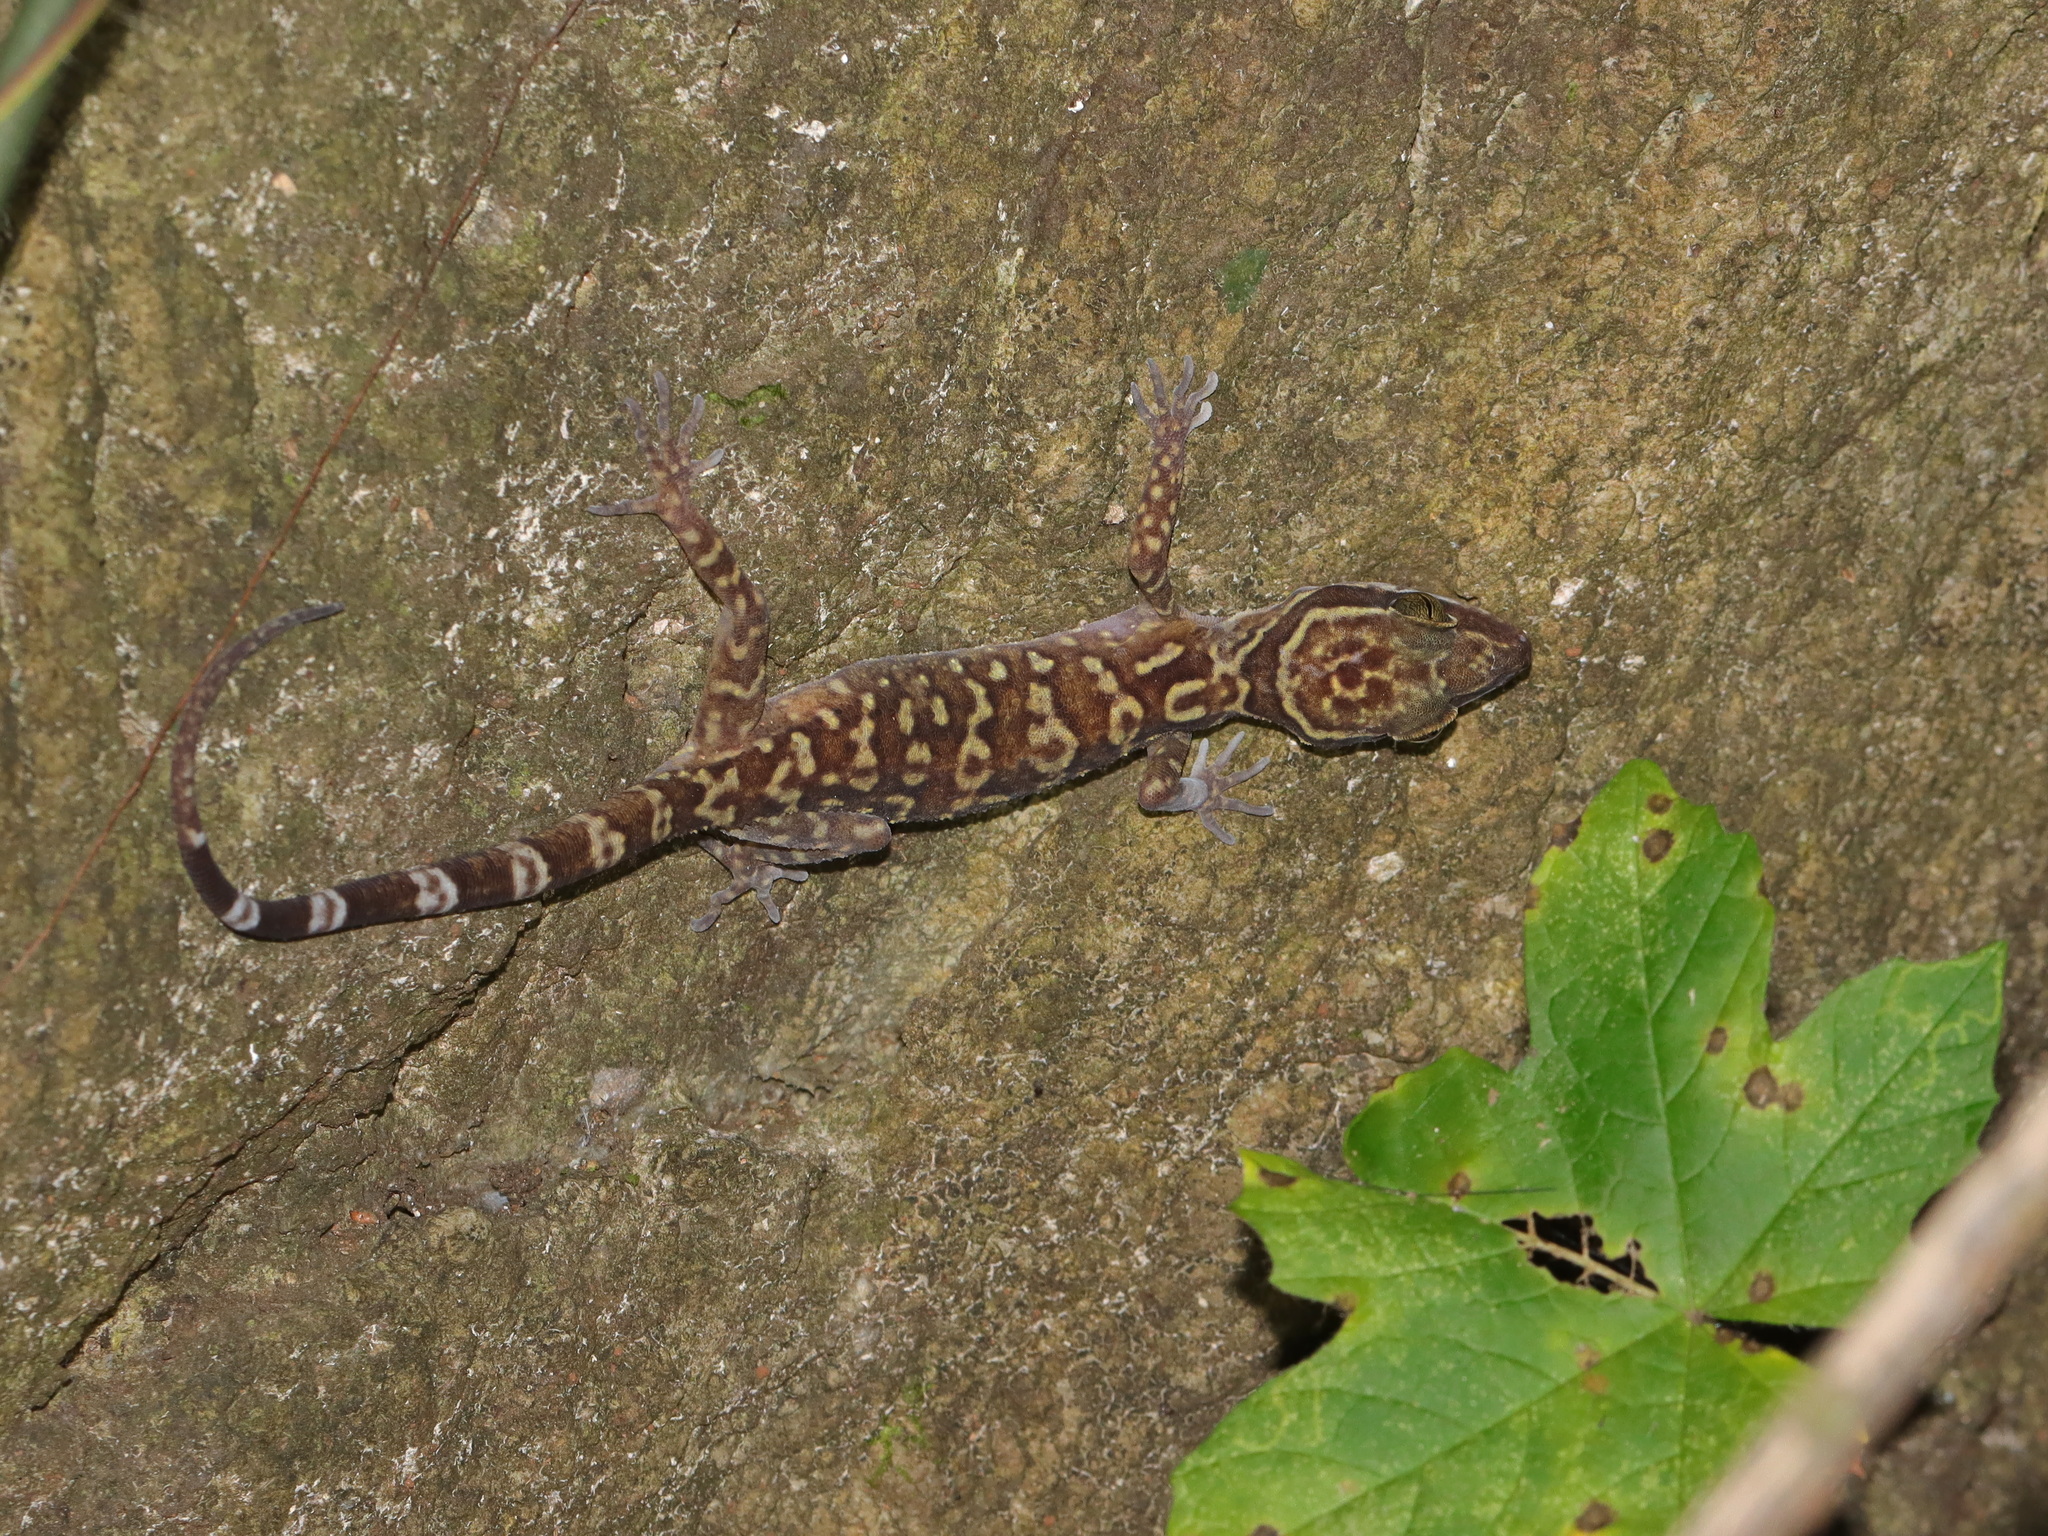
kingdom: Animalia
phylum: Chordata
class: Squamata
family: Gekkonidae
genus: Cyrtodactylus
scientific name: Cyrtodactylus sanook
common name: Sanook bent-toed gecko
